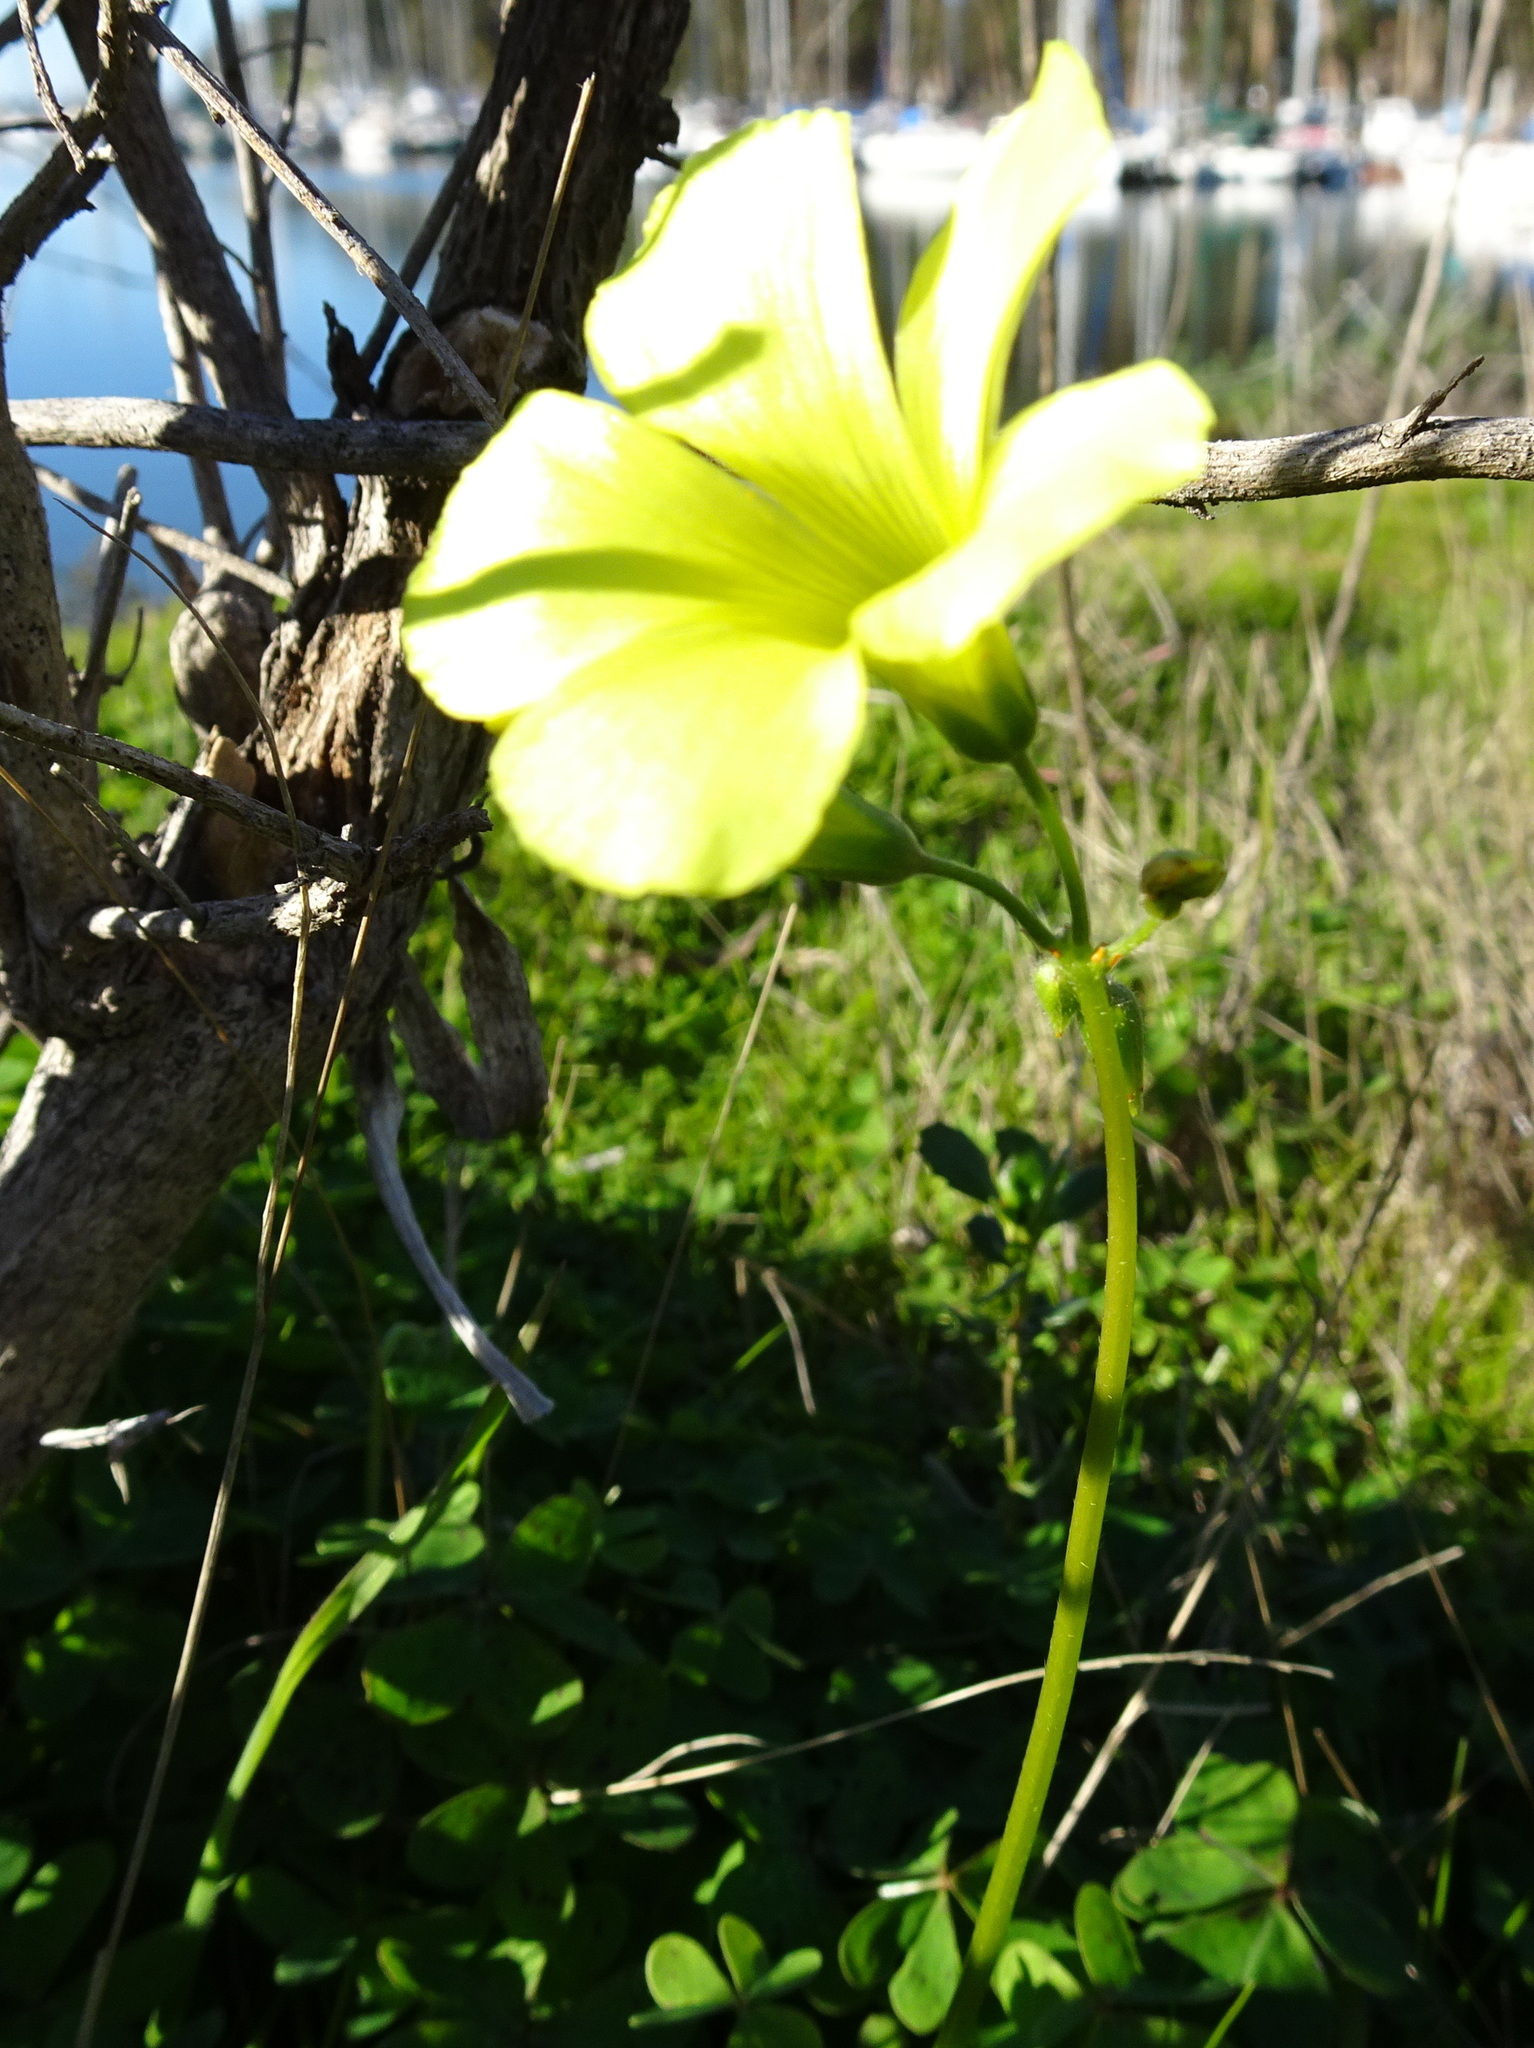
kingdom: Plantae
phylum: Tracheophyta
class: Magnoliopsida
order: Oxalidales
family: Oxalidaceae
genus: Oxalis
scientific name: Oxalis pes-caprae
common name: Bermuda-buttercup
